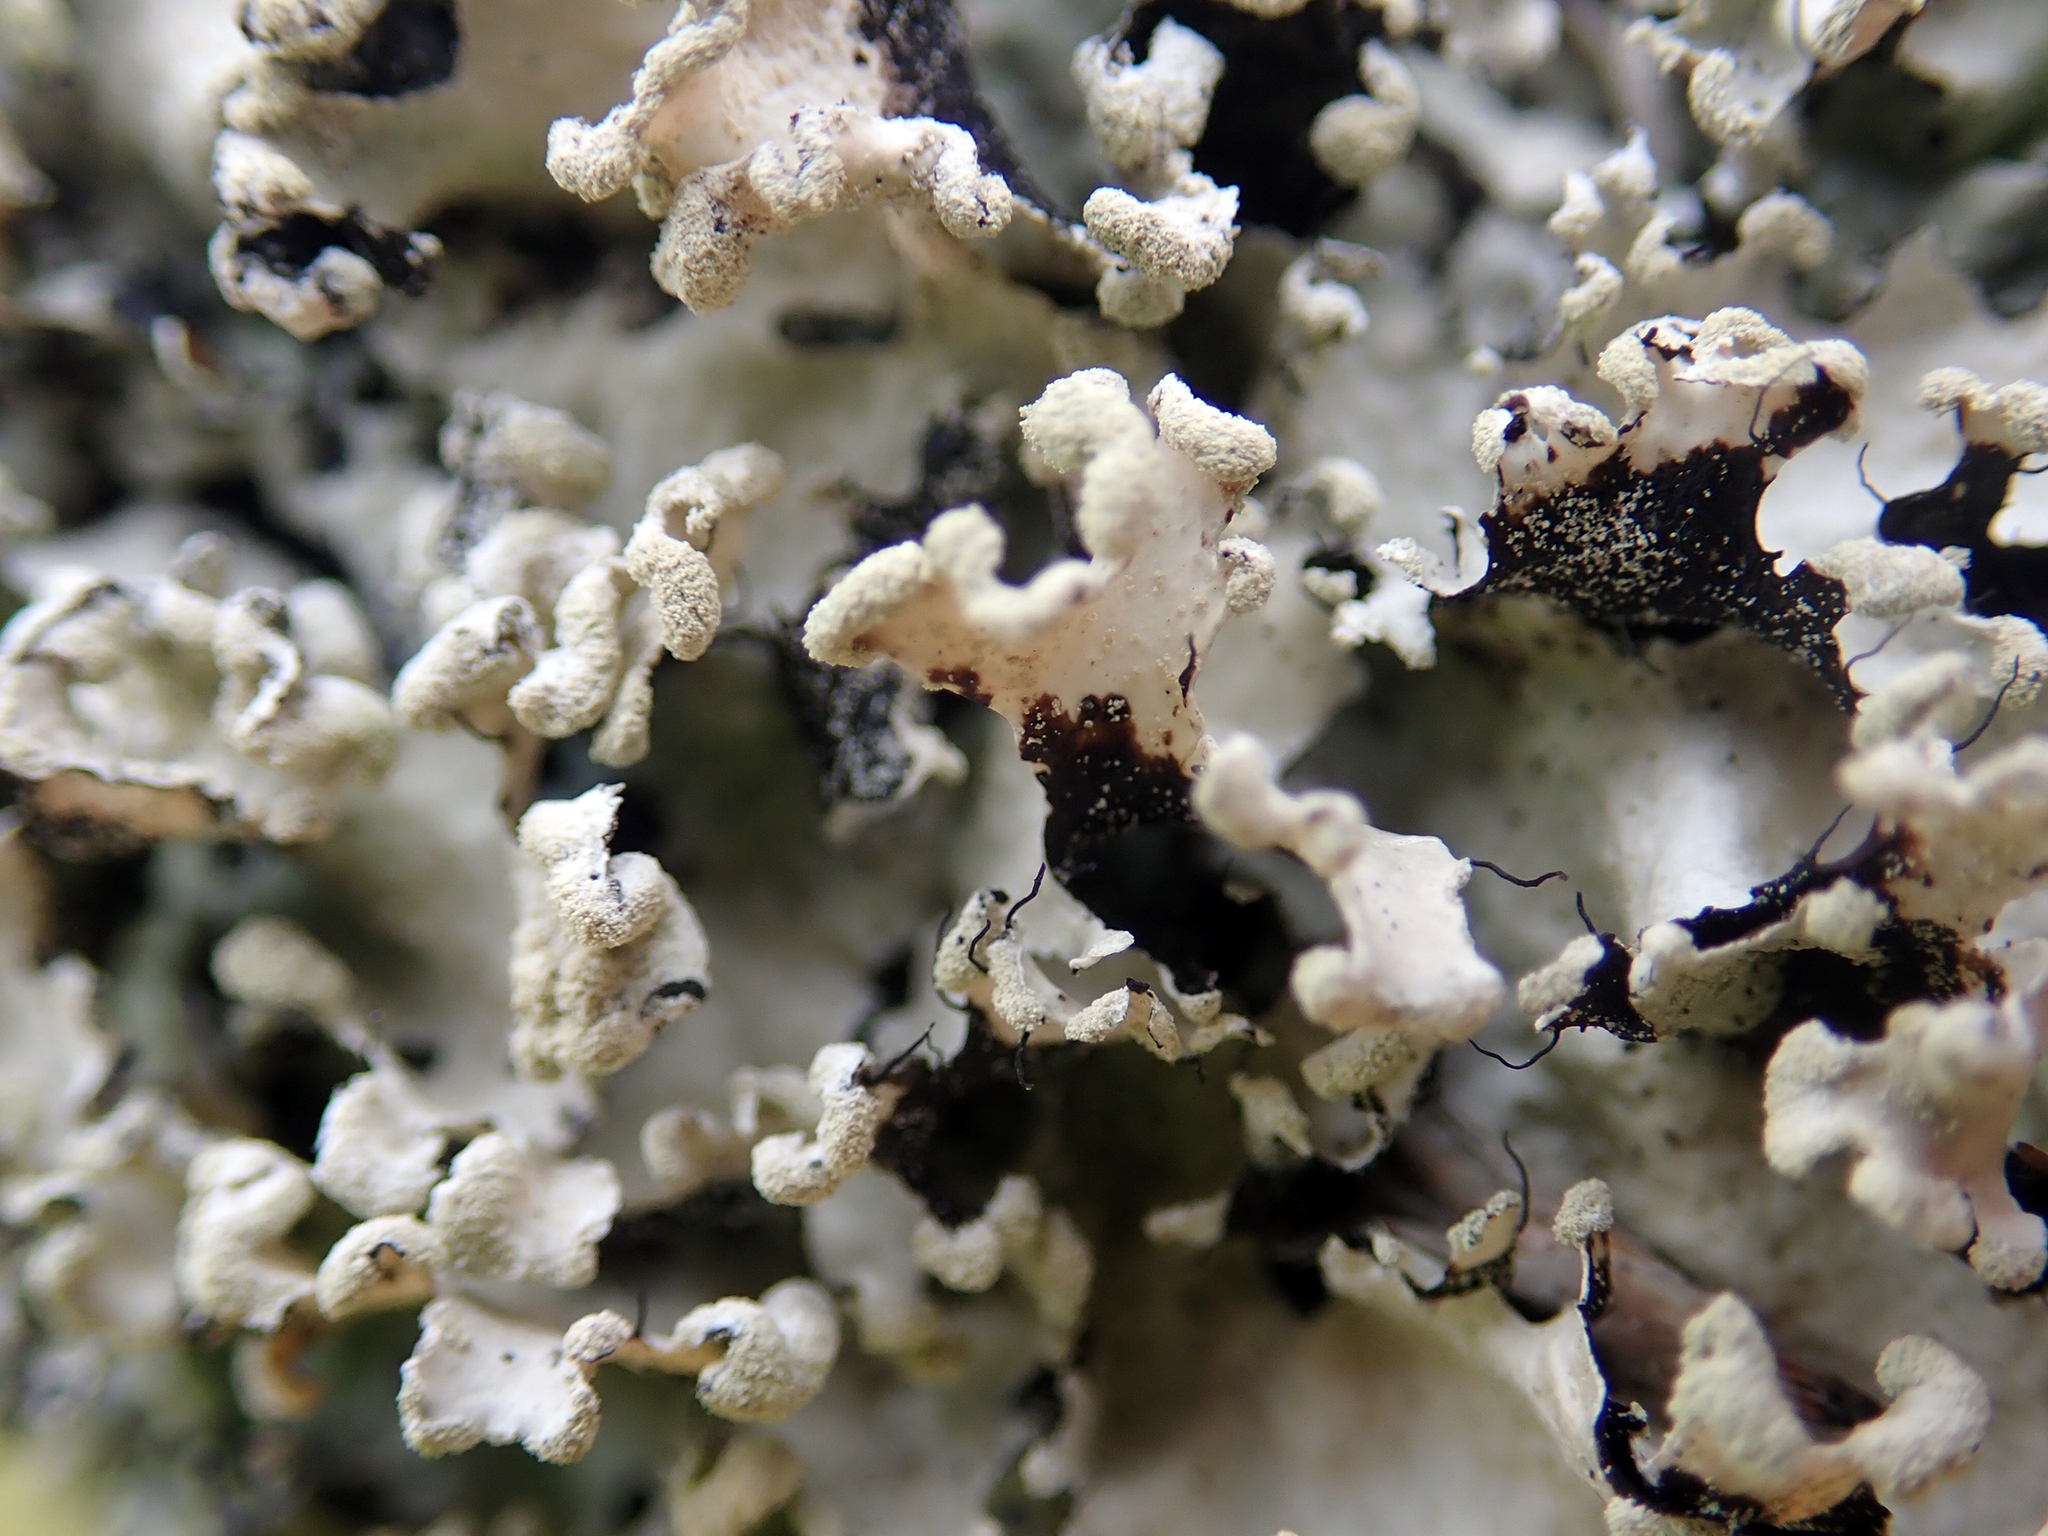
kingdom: Fungi
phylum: Ascomycota
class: Lecanoromycetes
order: Lecanorales
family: Parmeliaceae
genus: Parmotrema
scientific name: Parmotrema reticulatum
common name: Black sheet lichen
